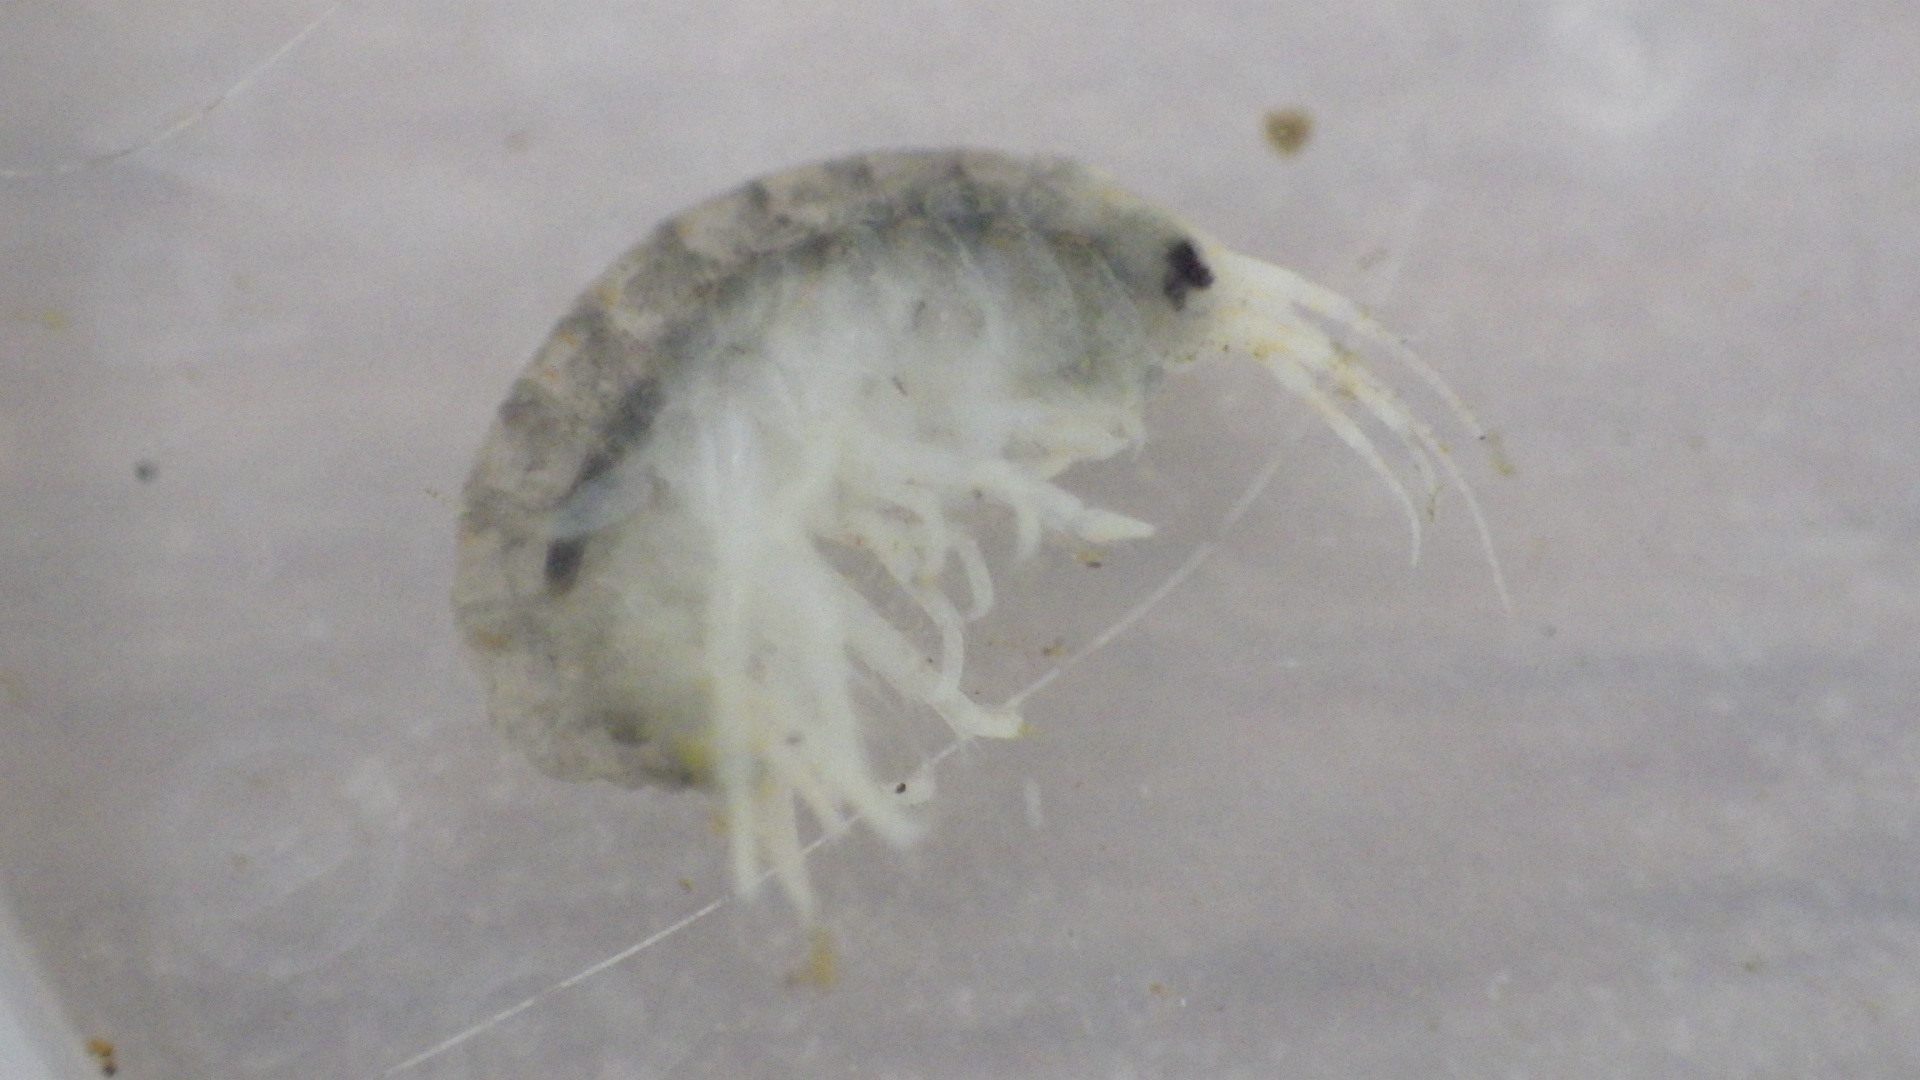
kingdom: Animalia
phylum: Arthropoda
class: Malacostraca
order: Amphipoda
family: Gammaridae
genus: Gammarus
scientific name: Gammarus fasciatus
